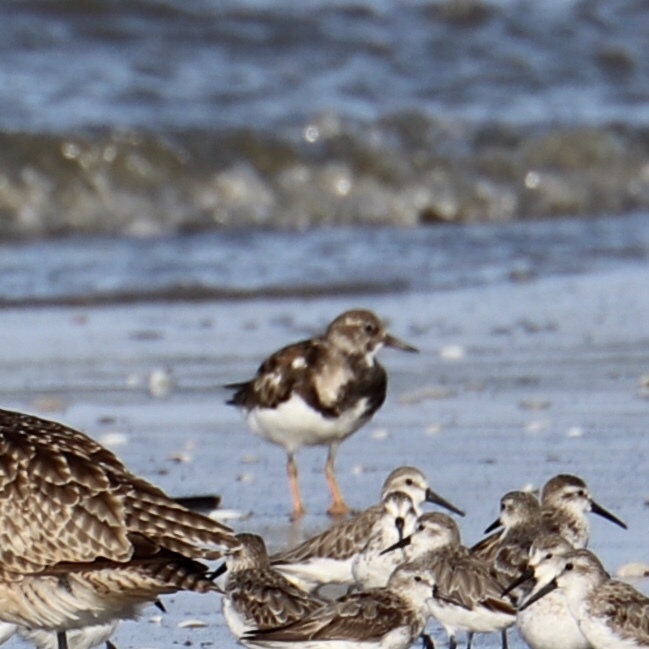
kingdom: Animalia
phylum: Chordata
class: Aves
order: Charadriiformes
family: Scolopacidae
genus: Arenaria
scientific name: Arenaria interpres
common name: Ruddy turnstone
